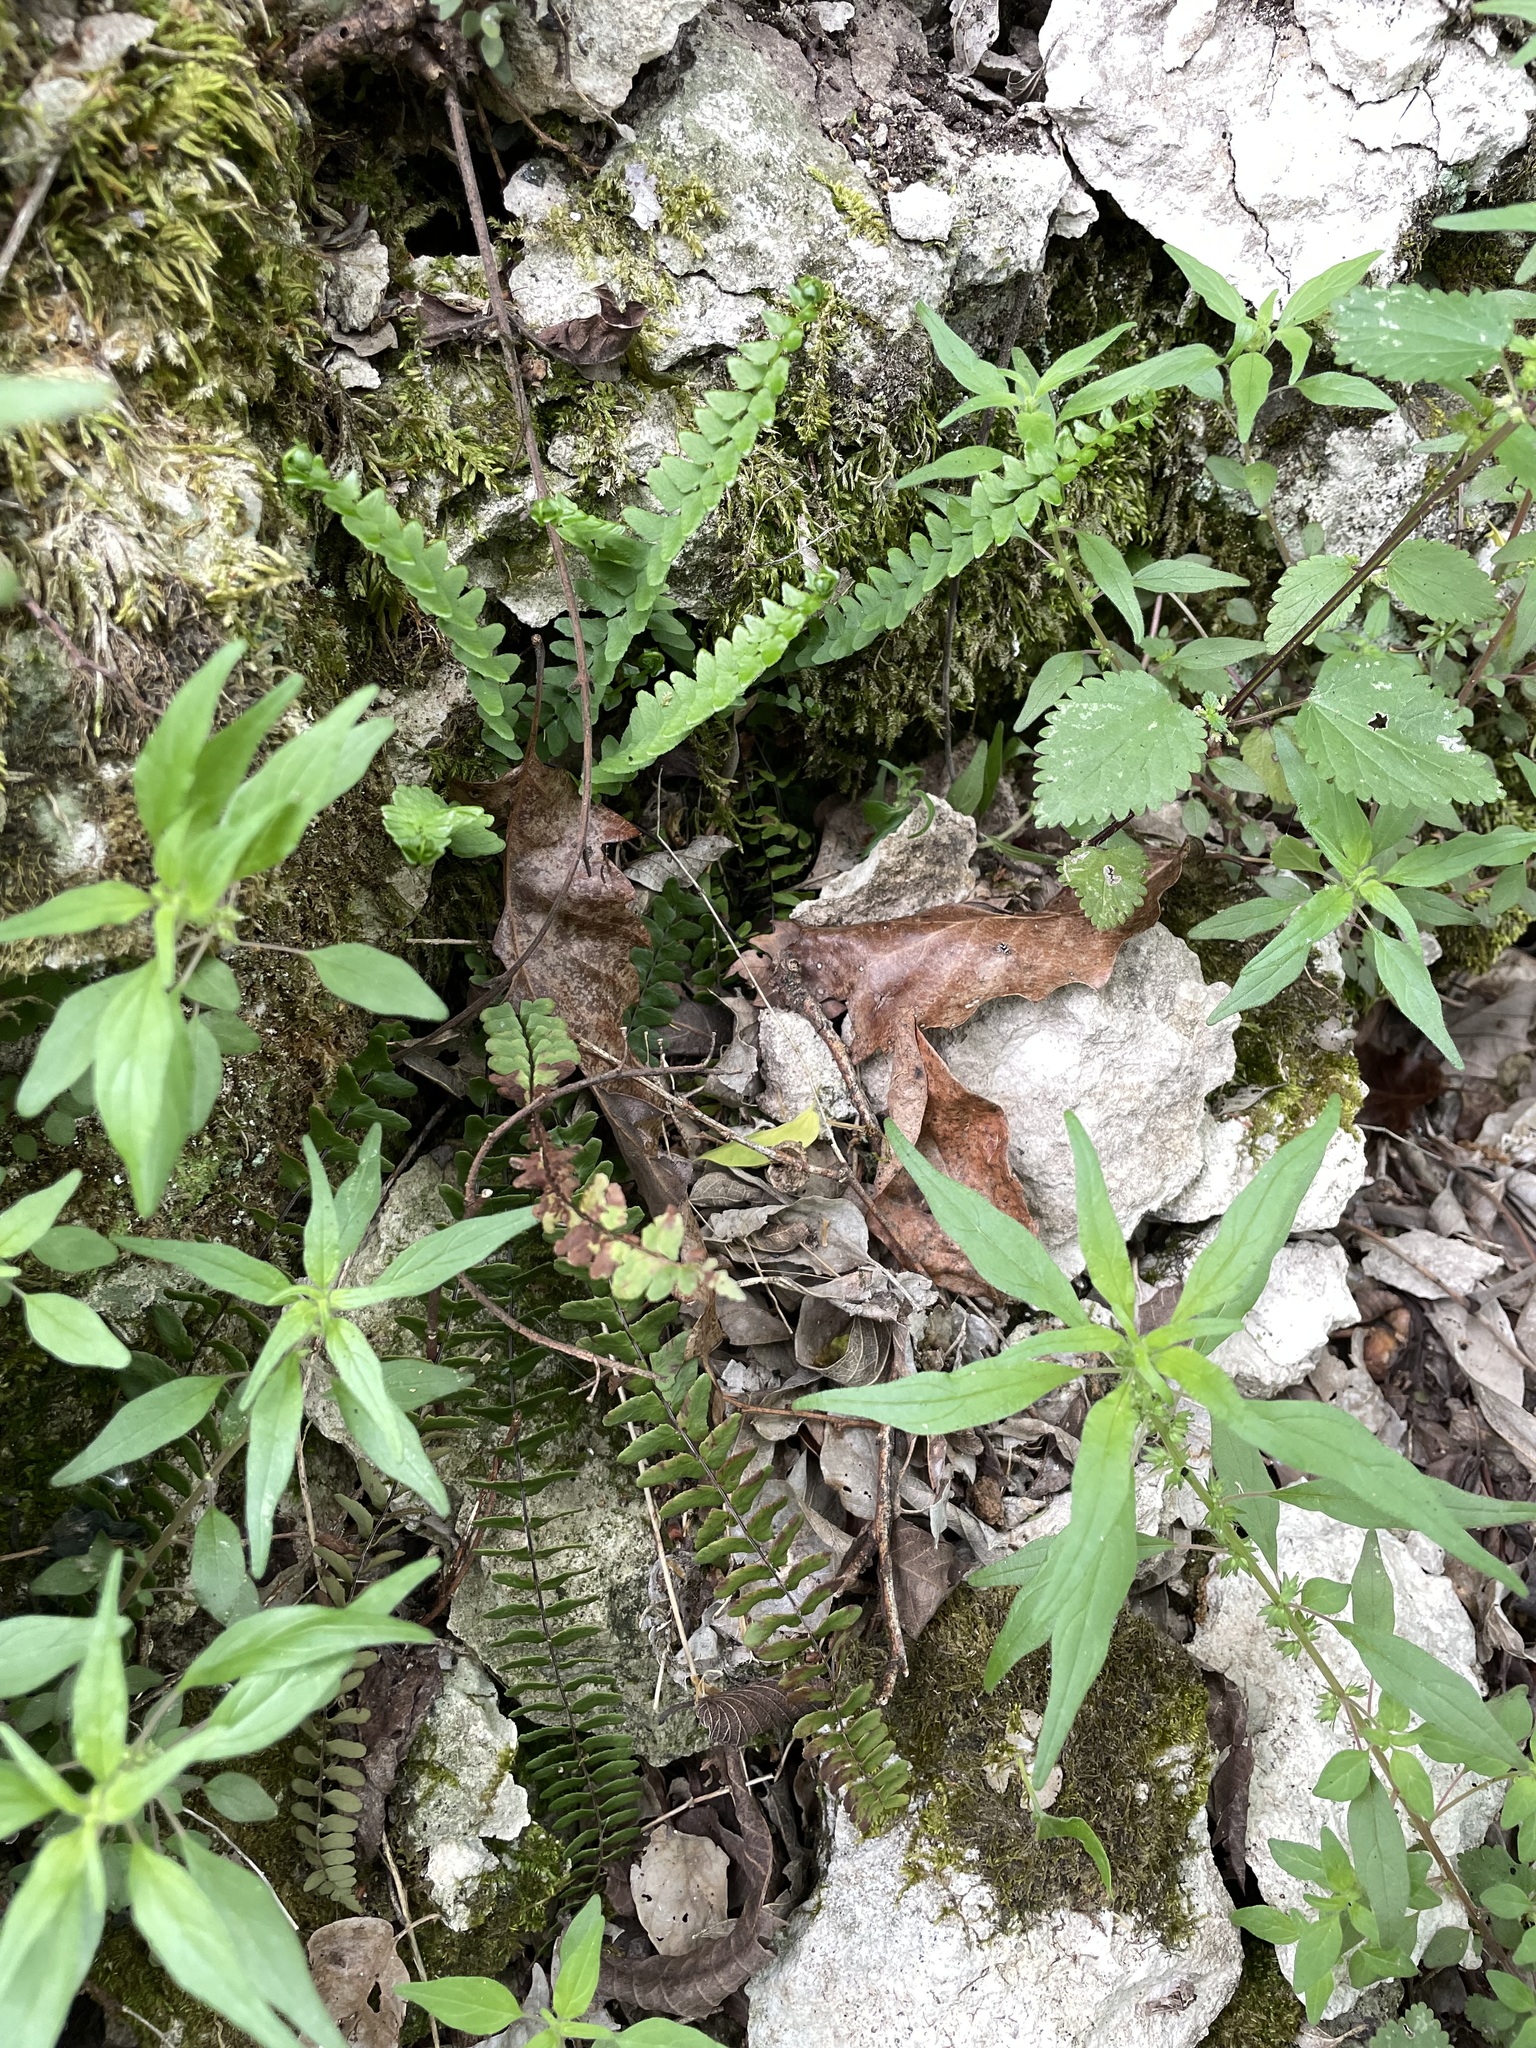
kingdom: Plantae
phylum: Tracheophyta
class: Polypodiopsida
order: Polypodiales
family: Aspleniaceae
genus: Asplenium
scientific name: Asplenium resiliens
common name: Blackstem spleenwort
